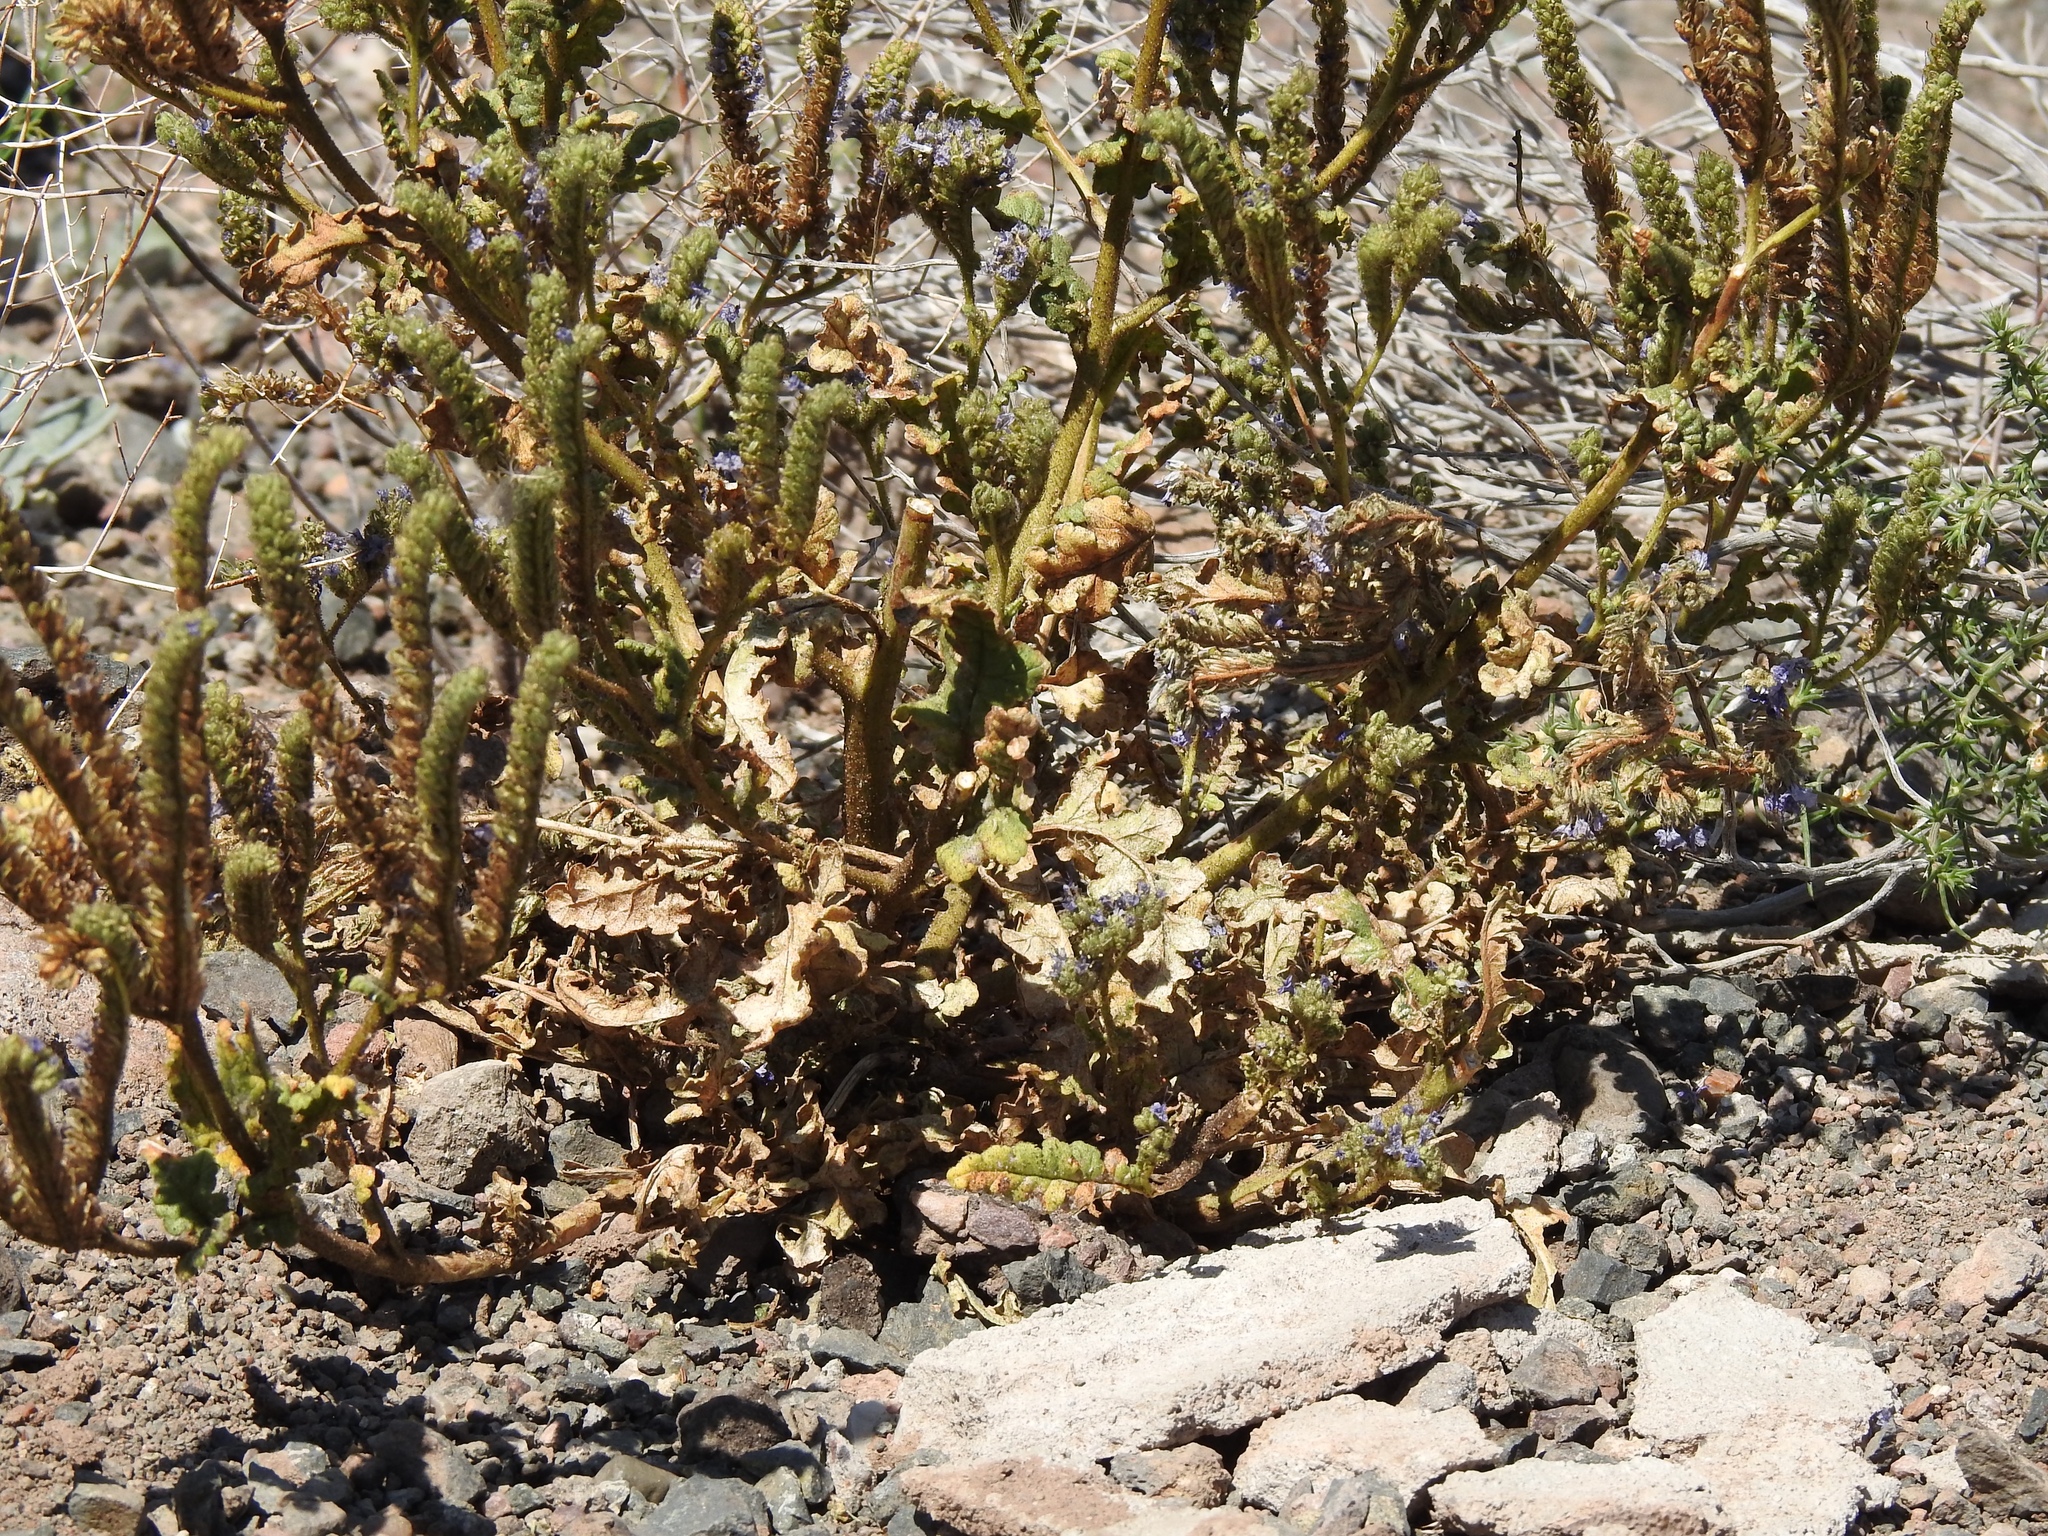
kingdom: Plantae
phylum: Tracheophyta
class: Magnoliopsida
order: Boraginales
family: Hydrophyllaceae
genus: Phacelia
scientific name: Phacelia integrifolia
